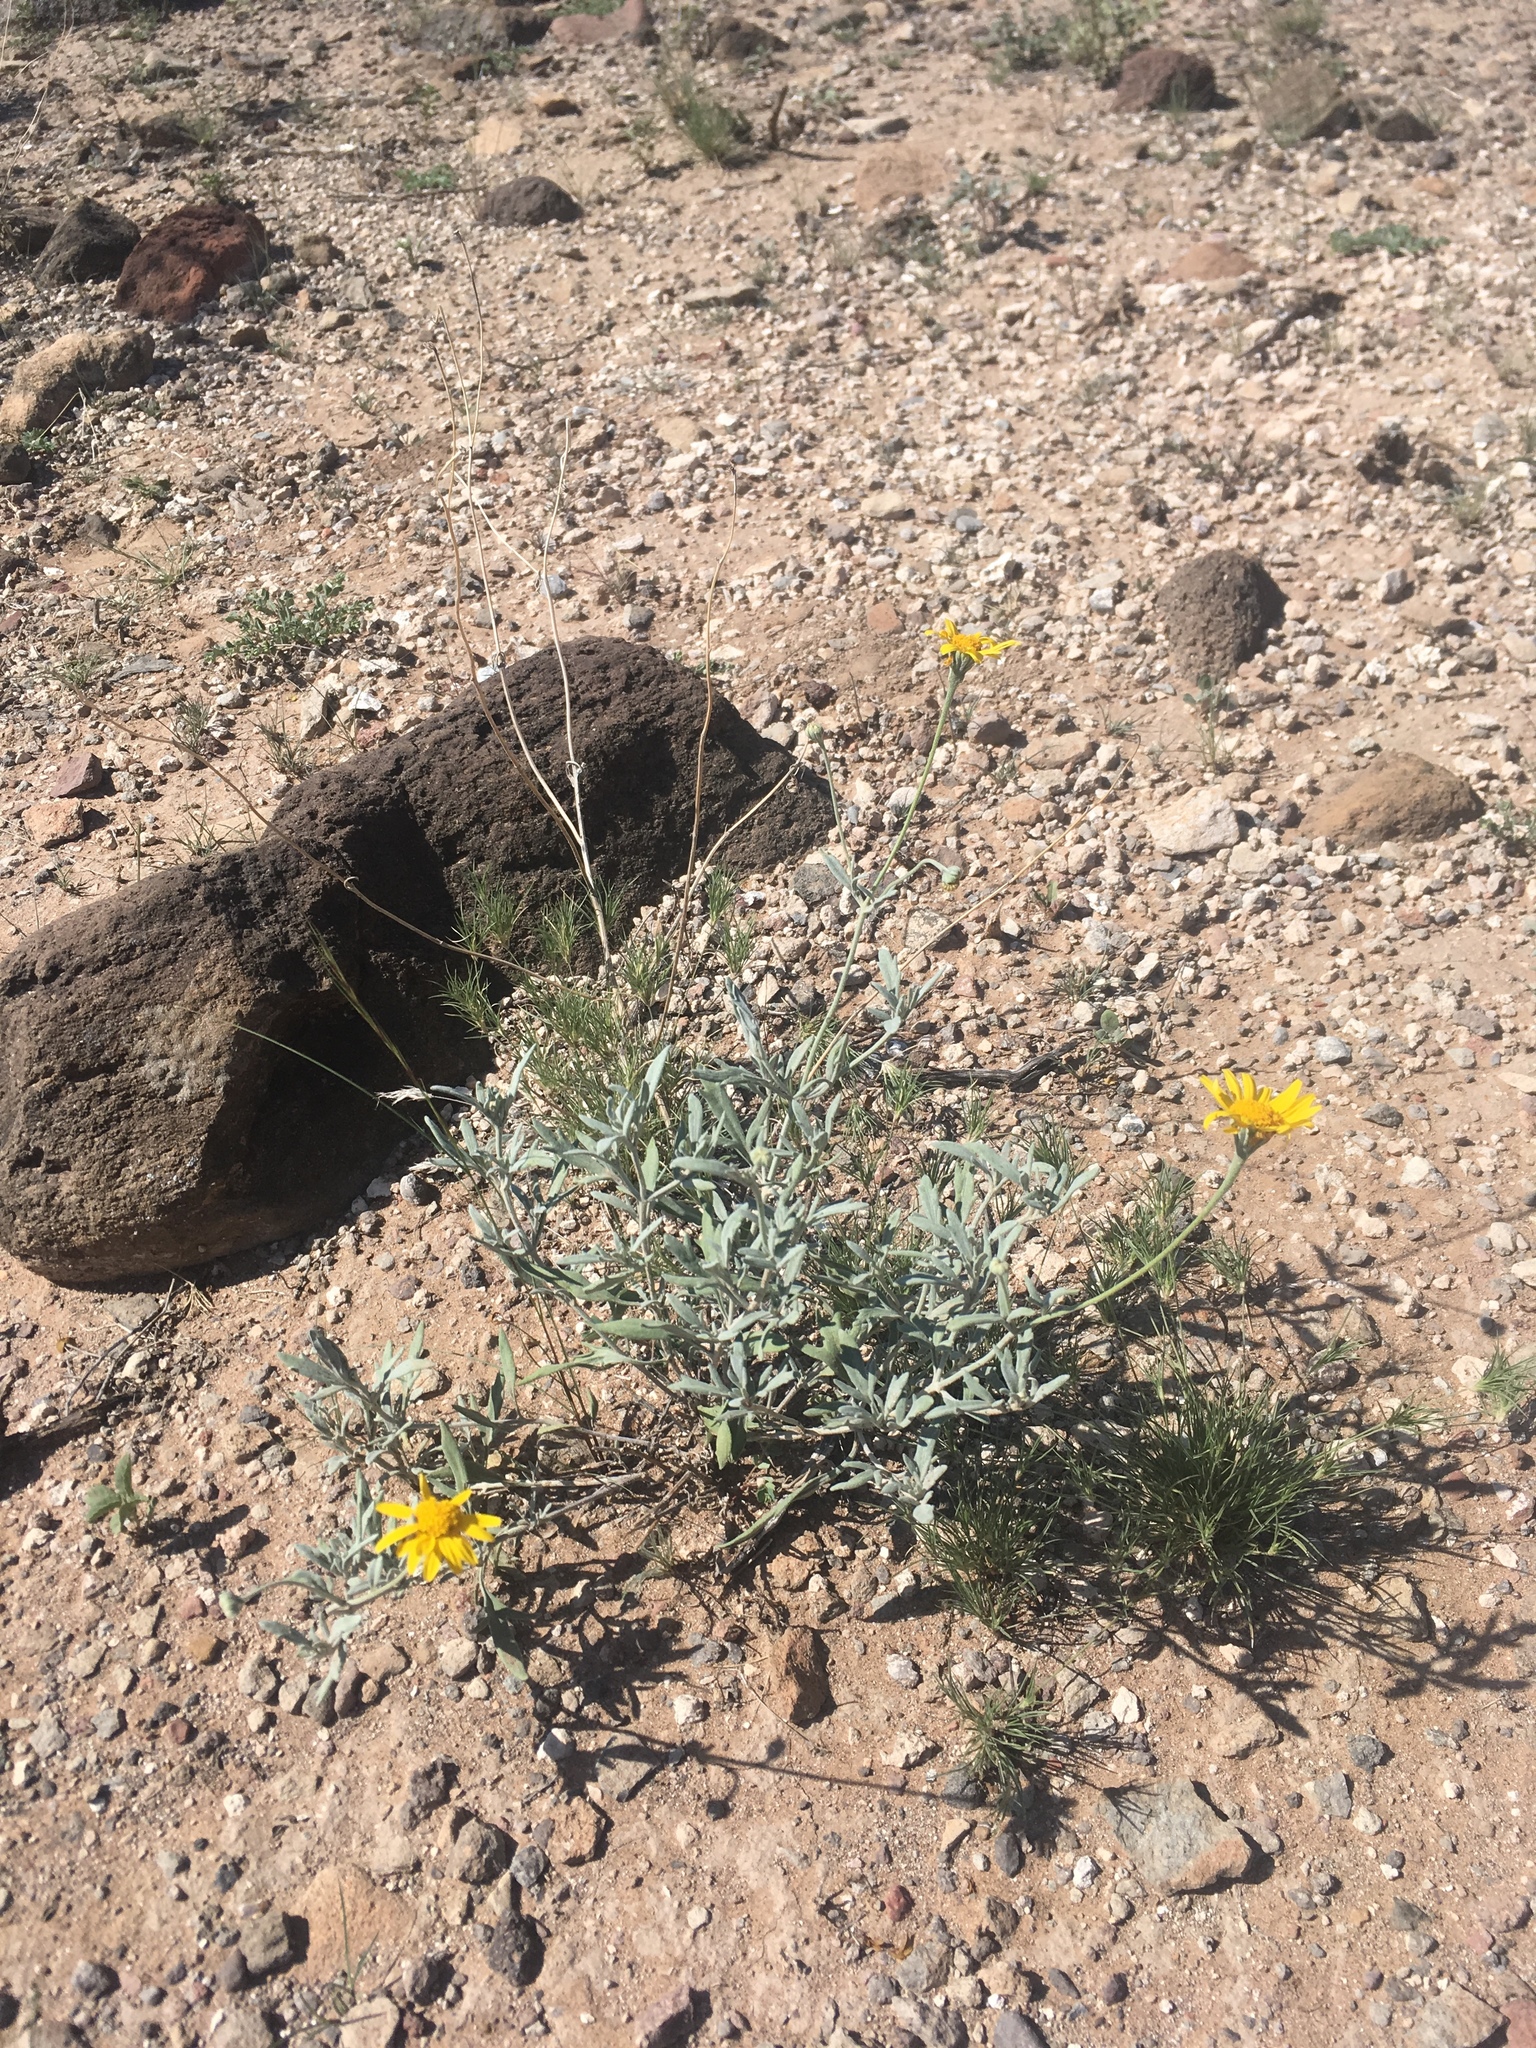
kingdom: Plantae
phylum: Tracheophyta
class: Magnoliopsida
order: Asterales
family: Asteraceae
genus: Picradeniopsis
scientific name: Picradeniopsis absinthifolia
